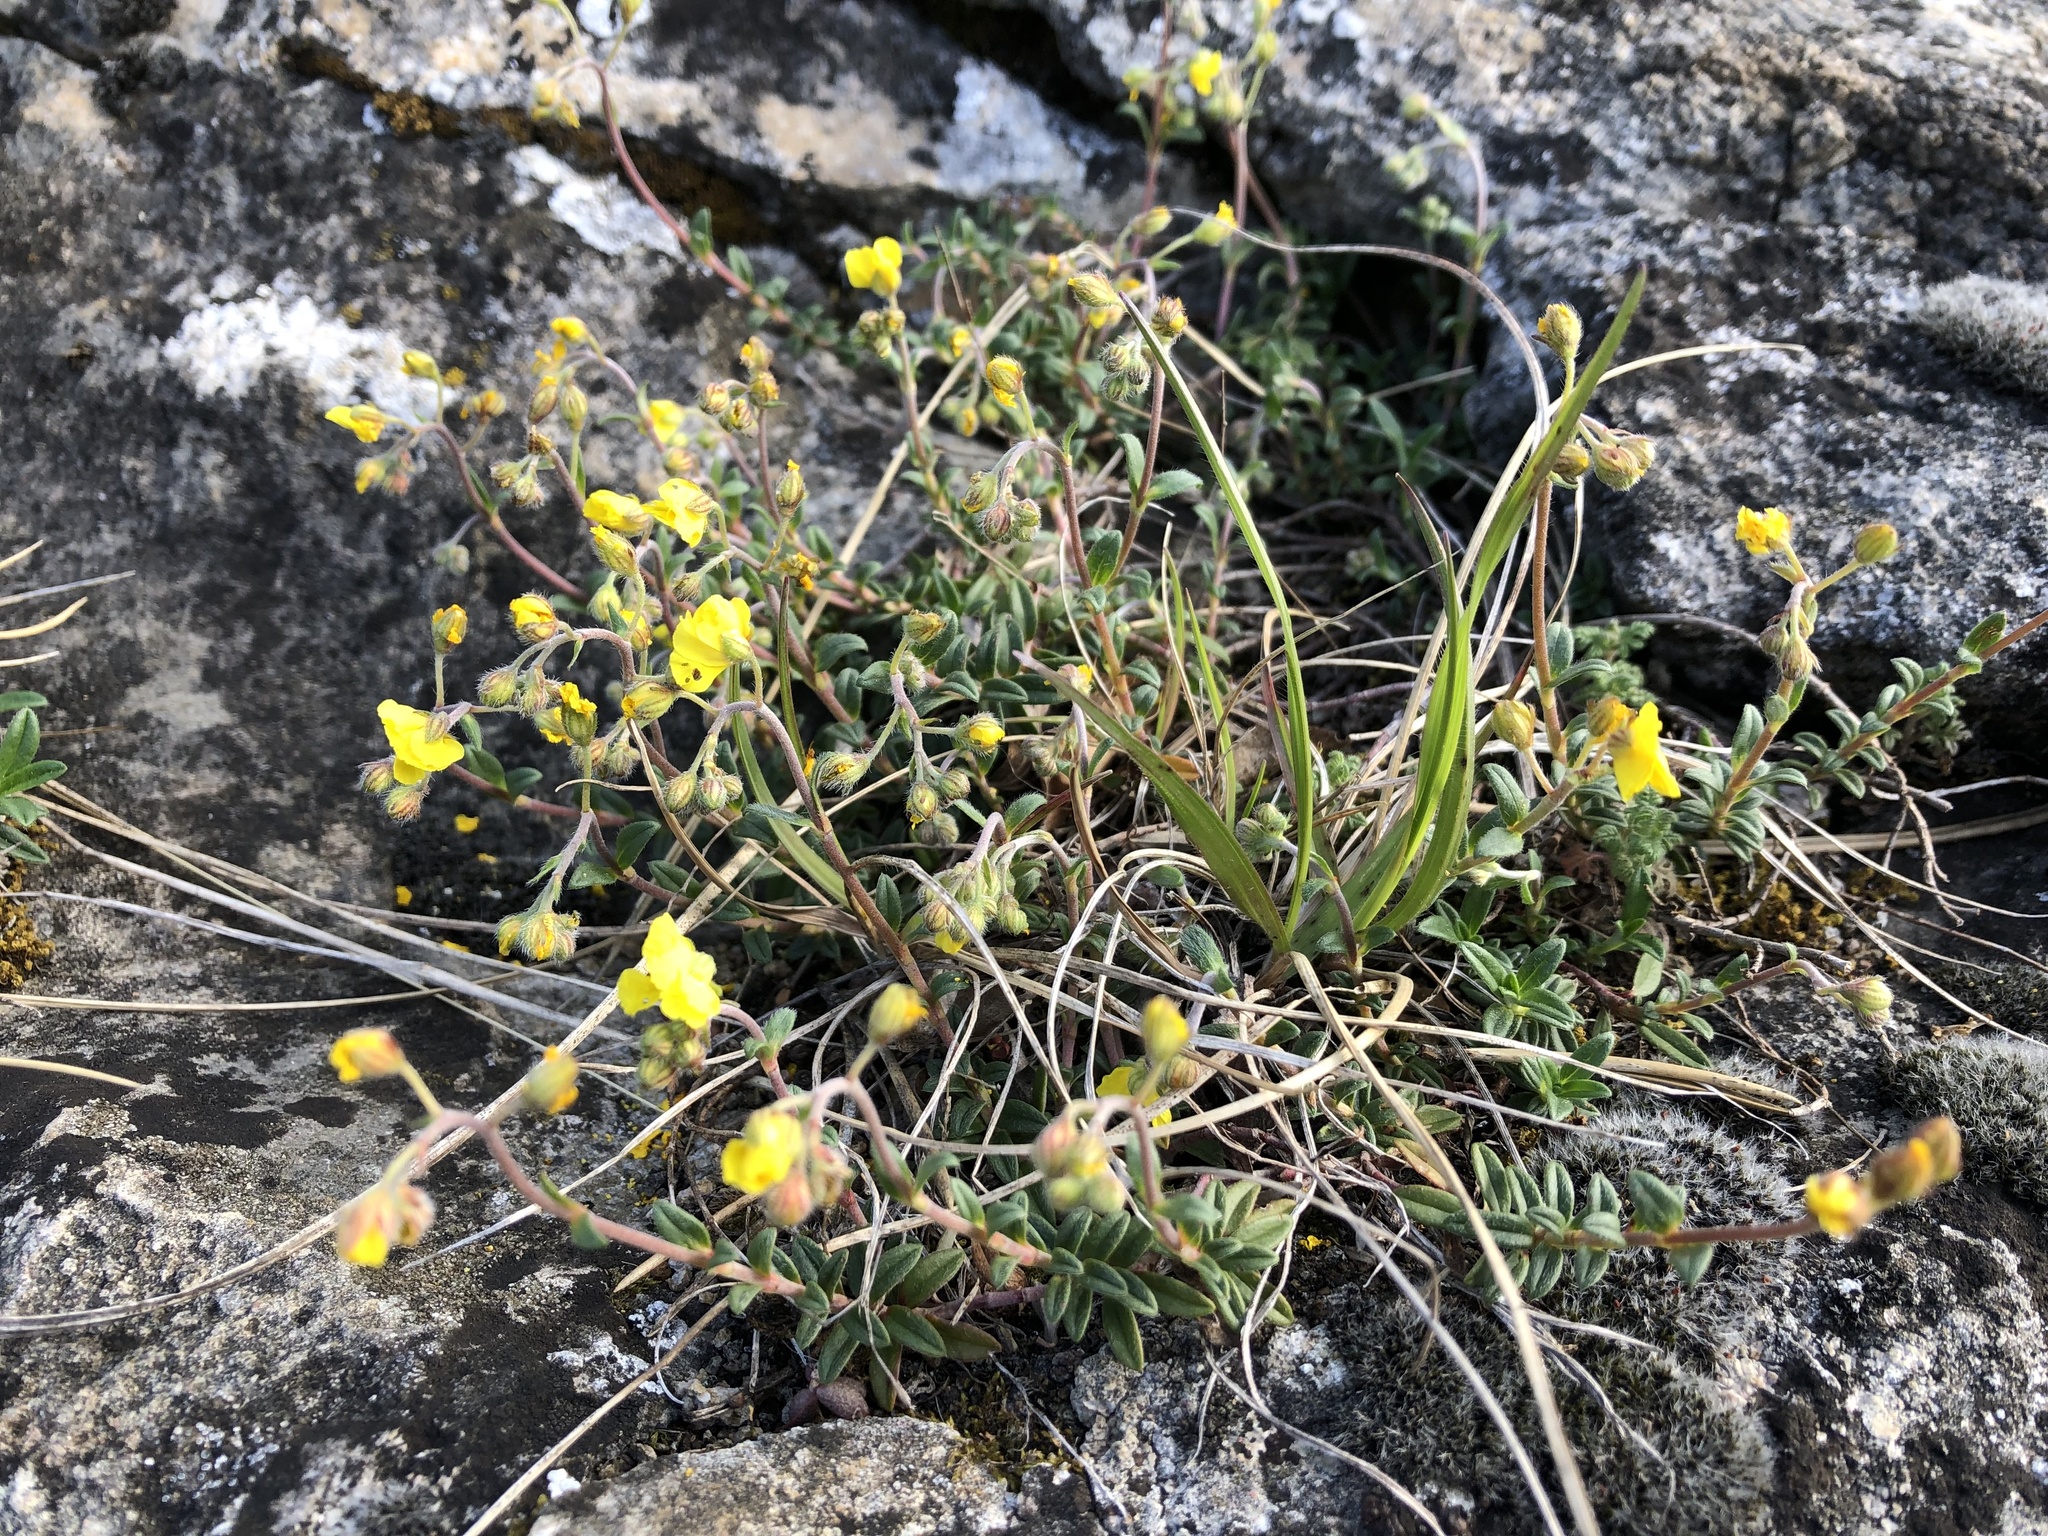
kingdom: Plantae
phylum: Tracheophyta
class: Magnoliopsida
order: Malvales
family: Cistaceae
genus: Helianthemum
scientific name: Helianthemum canum
